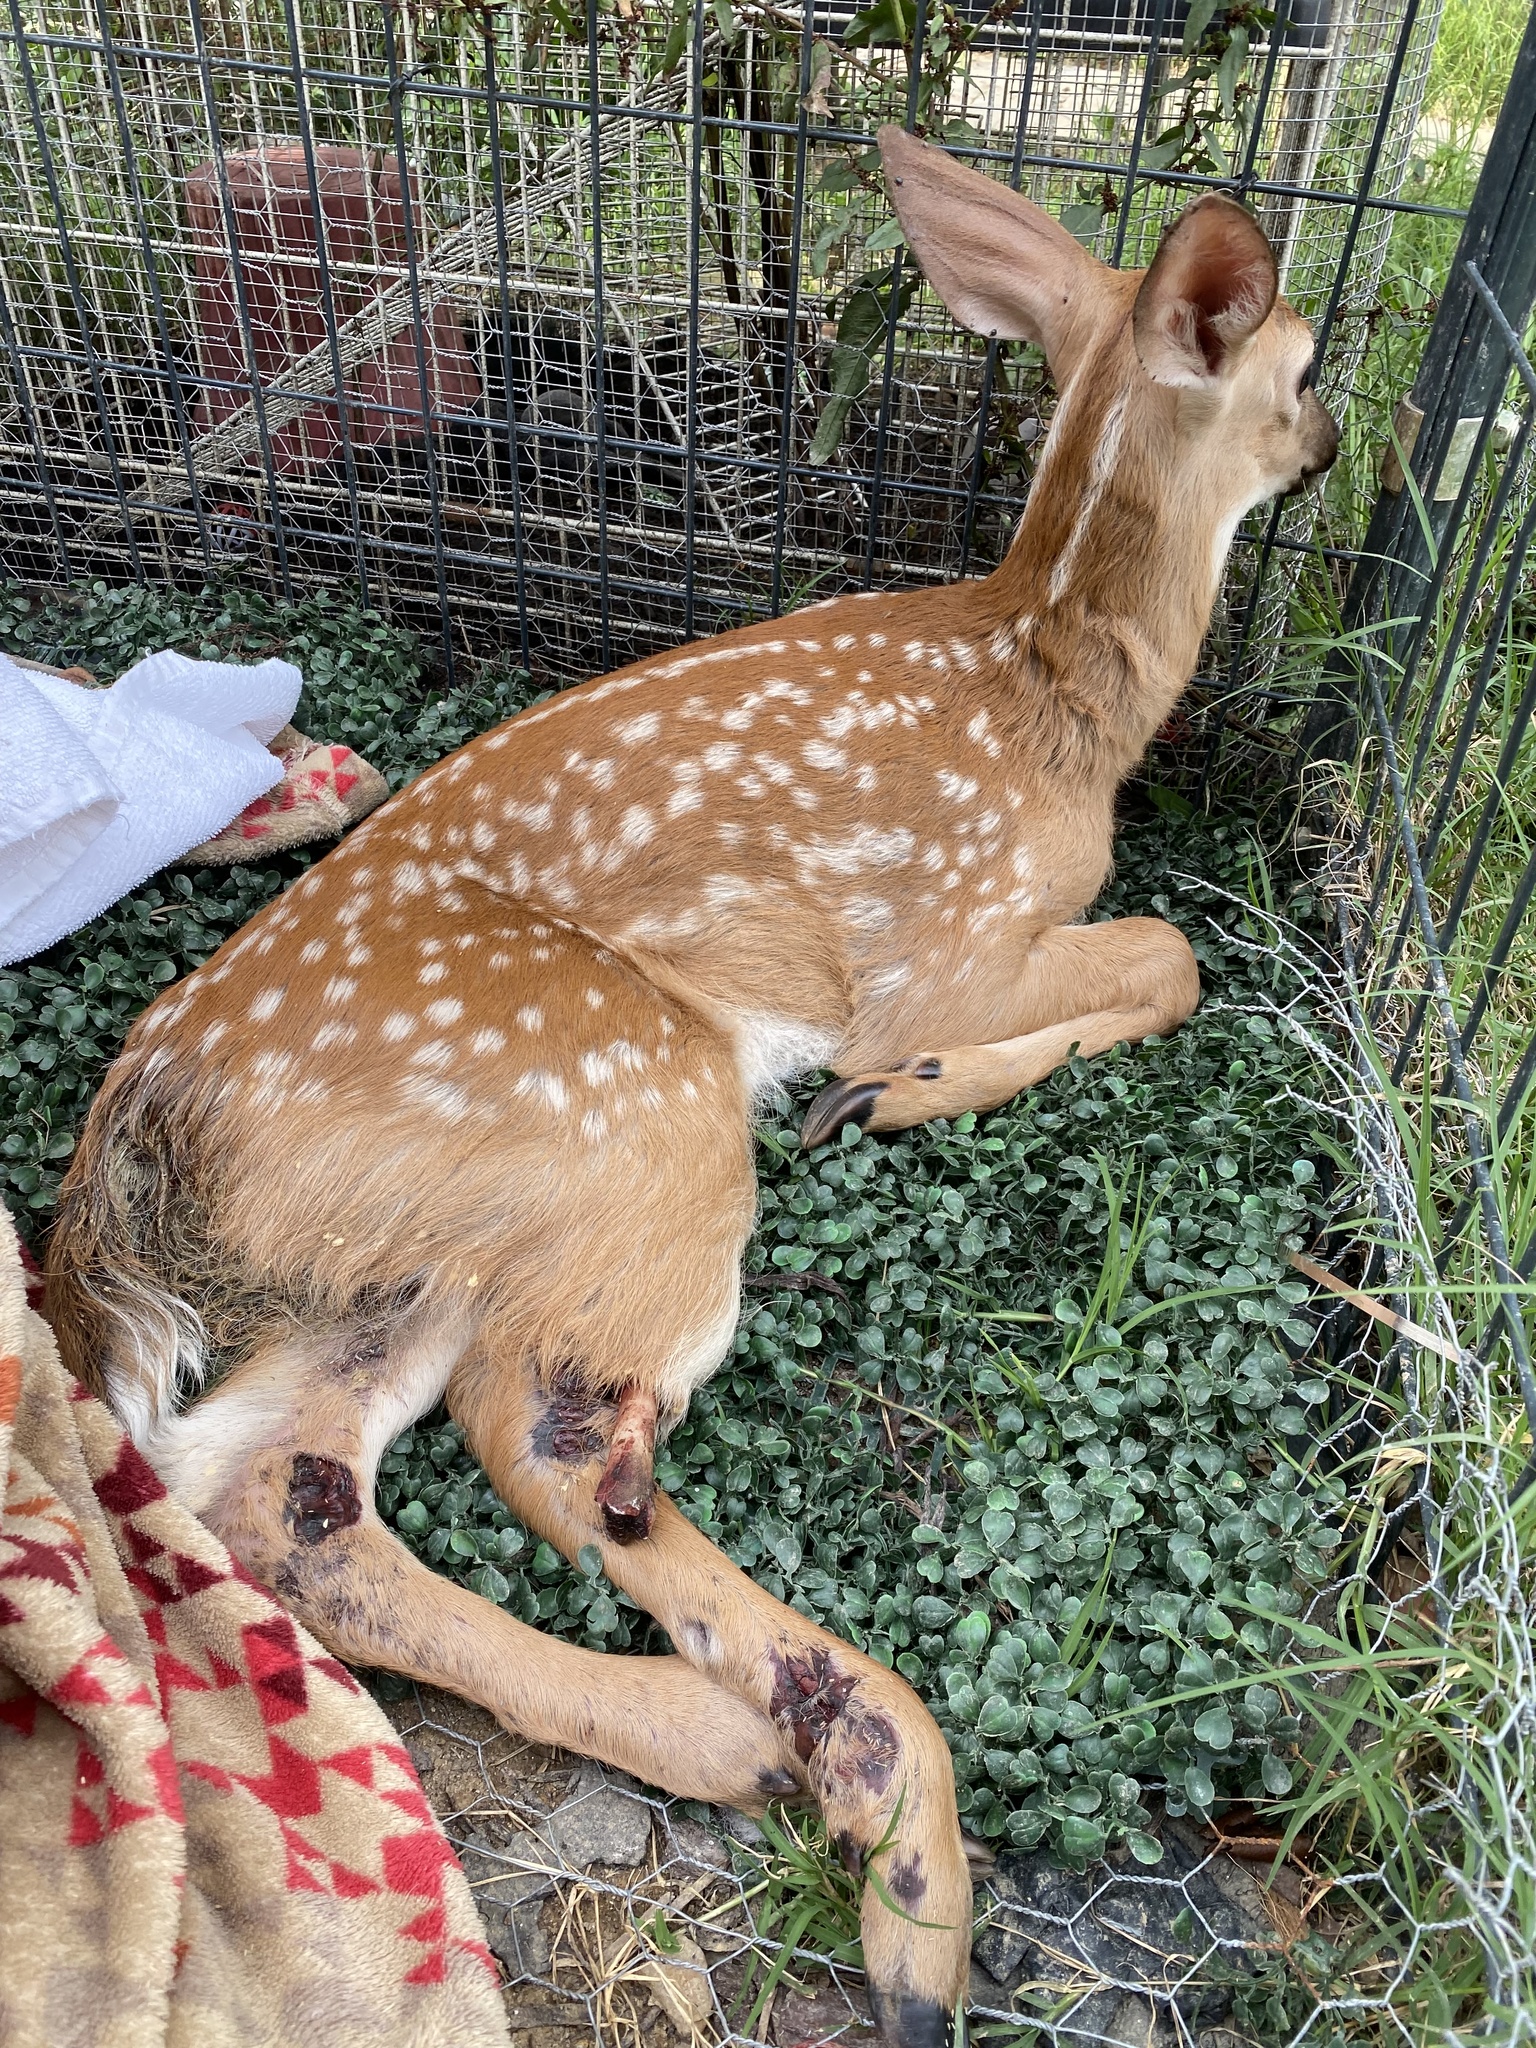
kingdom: Animalia
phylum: Chordata
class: Mammalia
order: Artiodactyla
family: Cervidae
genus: Odocoileus
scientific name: Odocoileus virginianus
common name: White-tailed deer
